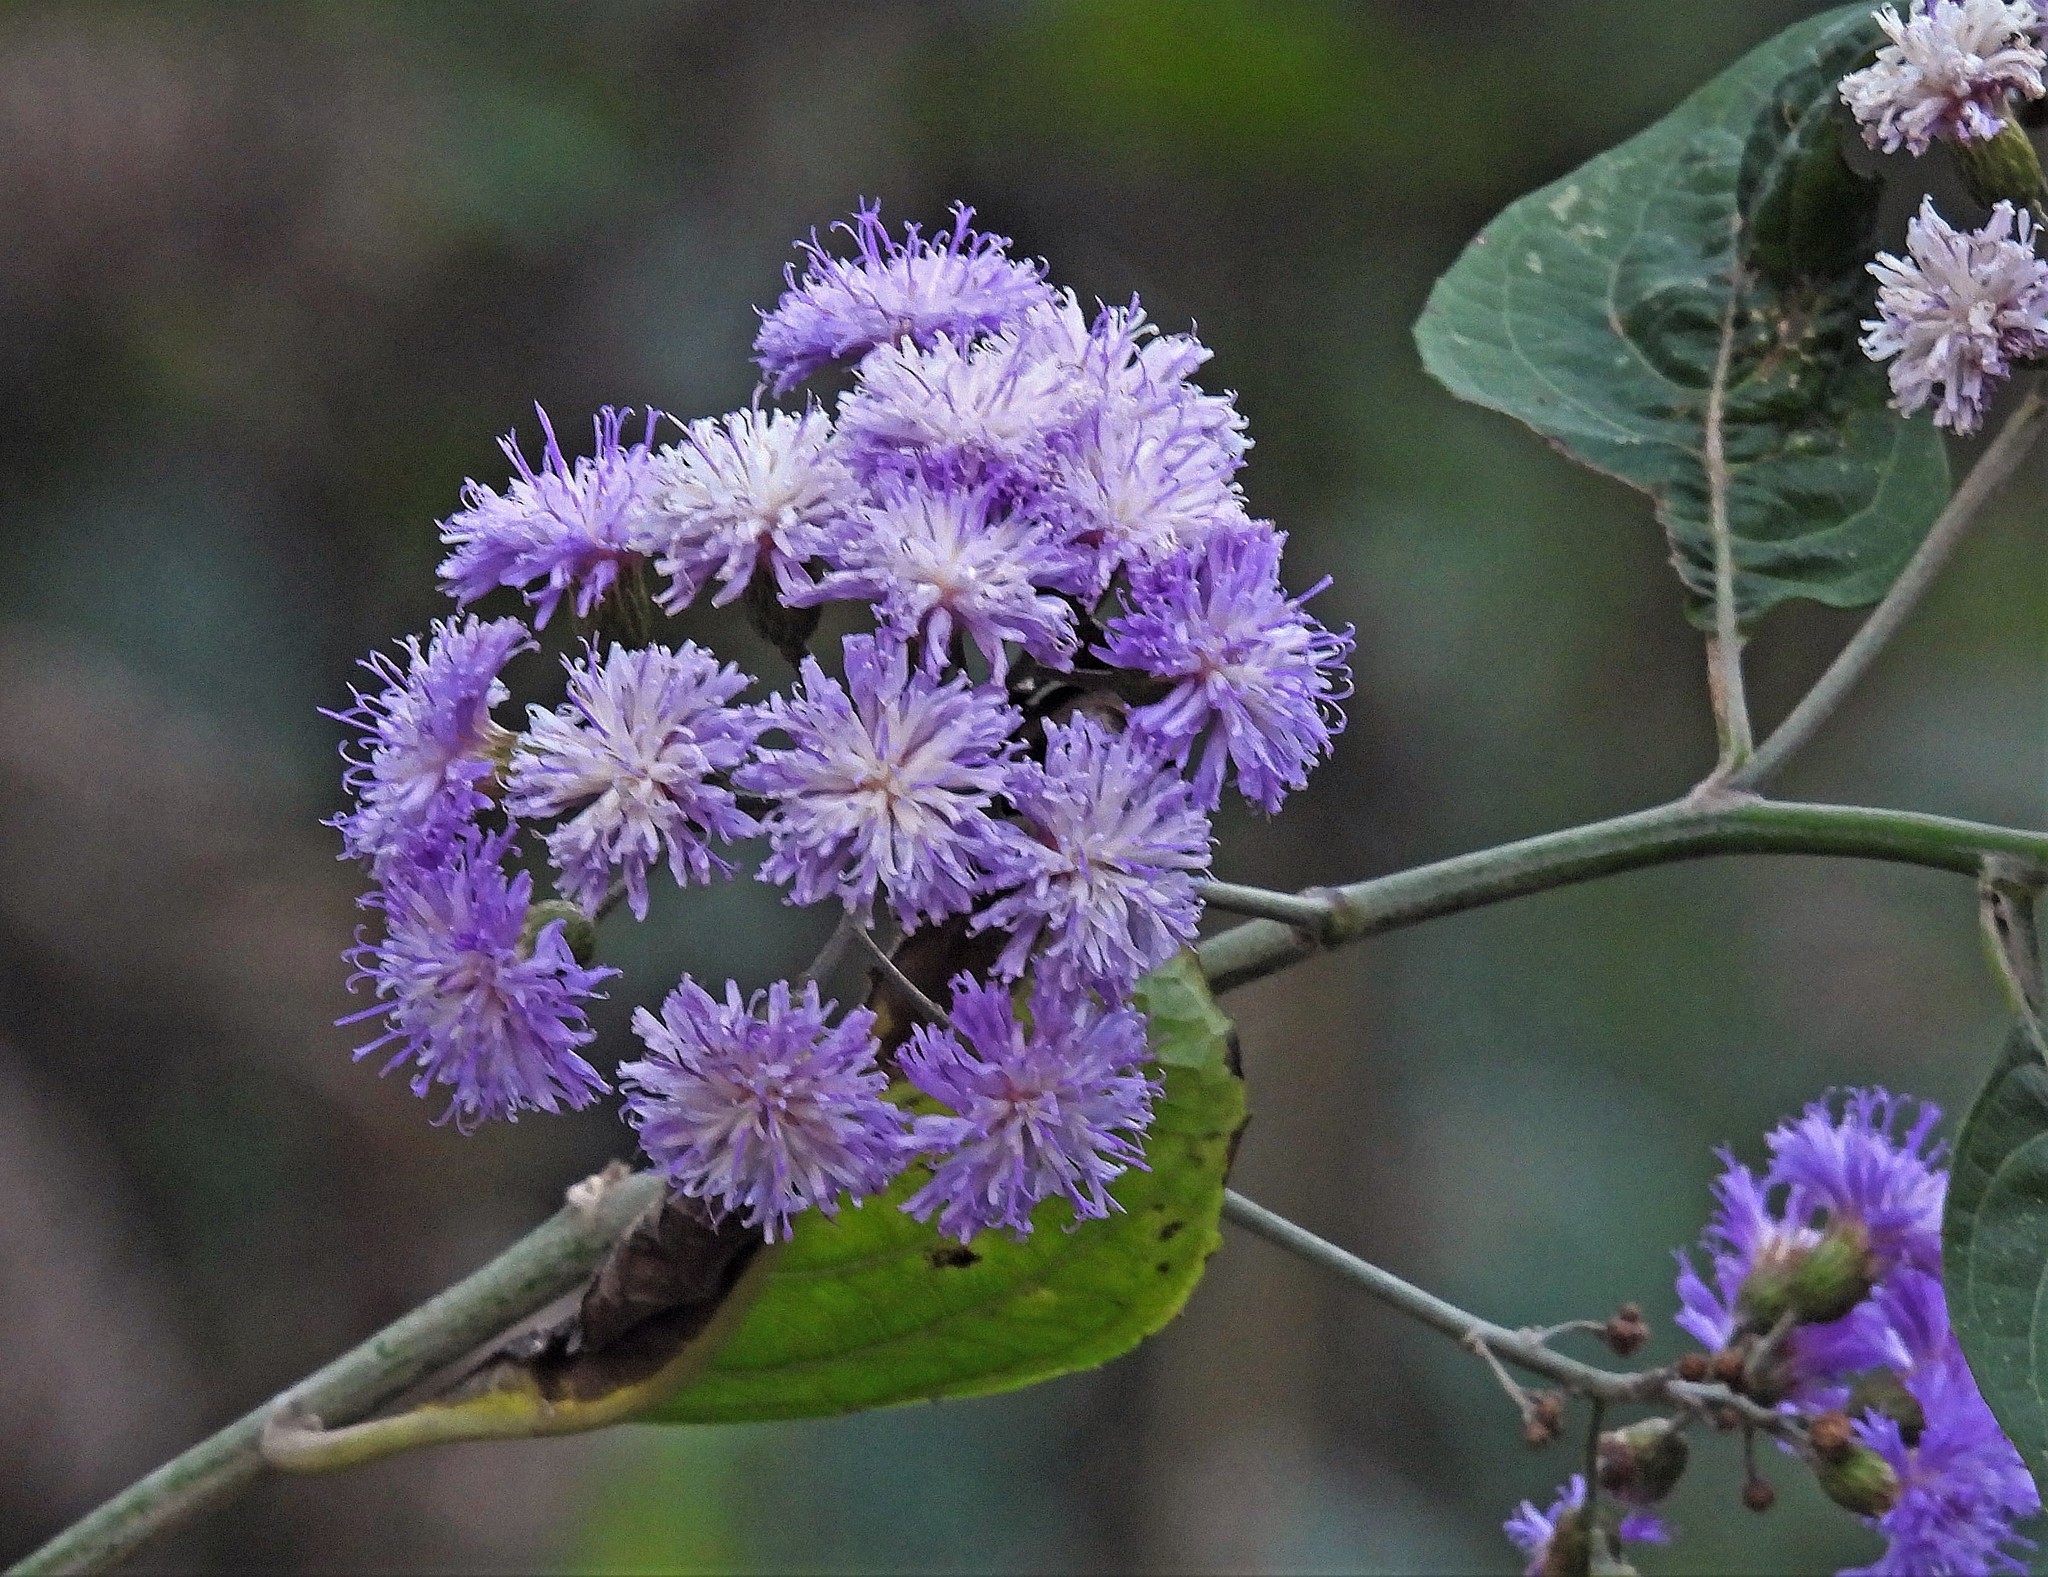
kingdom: Plantae
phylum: Tracheophyta
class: Magnoliopsida
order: Asterales
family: Asteraceae
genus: Quechualia
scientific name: Quechualia fulta
